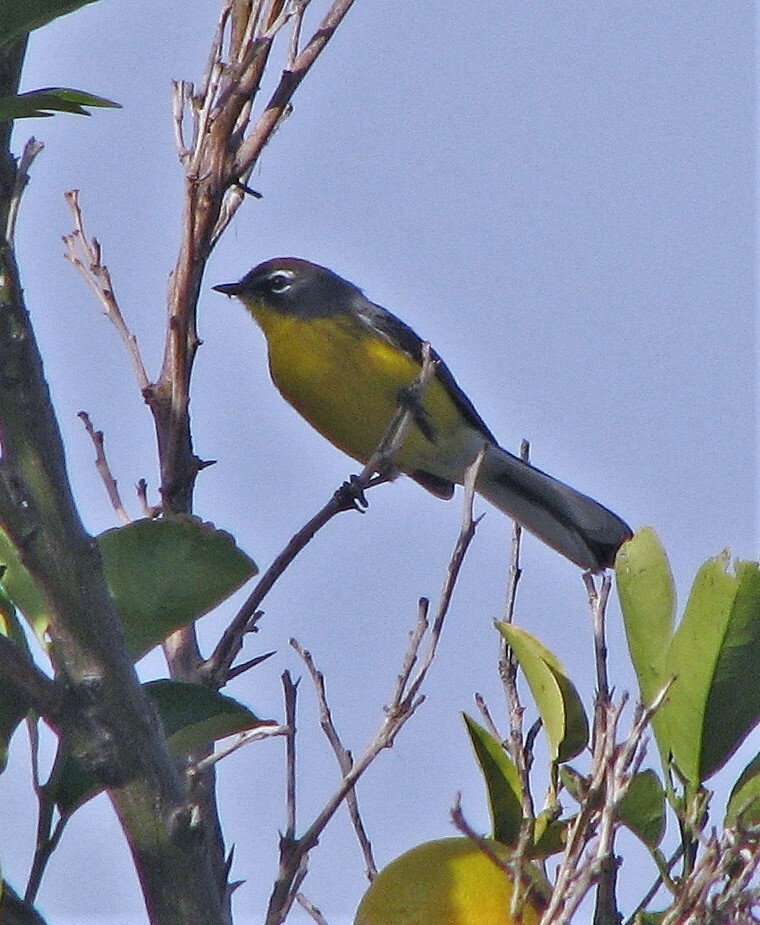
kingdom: Animalia
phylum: Chordata
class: Aves
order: Passeriformes
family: Parulidae
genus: Myioborus
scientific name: Myioborus brunniceps
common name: Brown-capped whitestart
